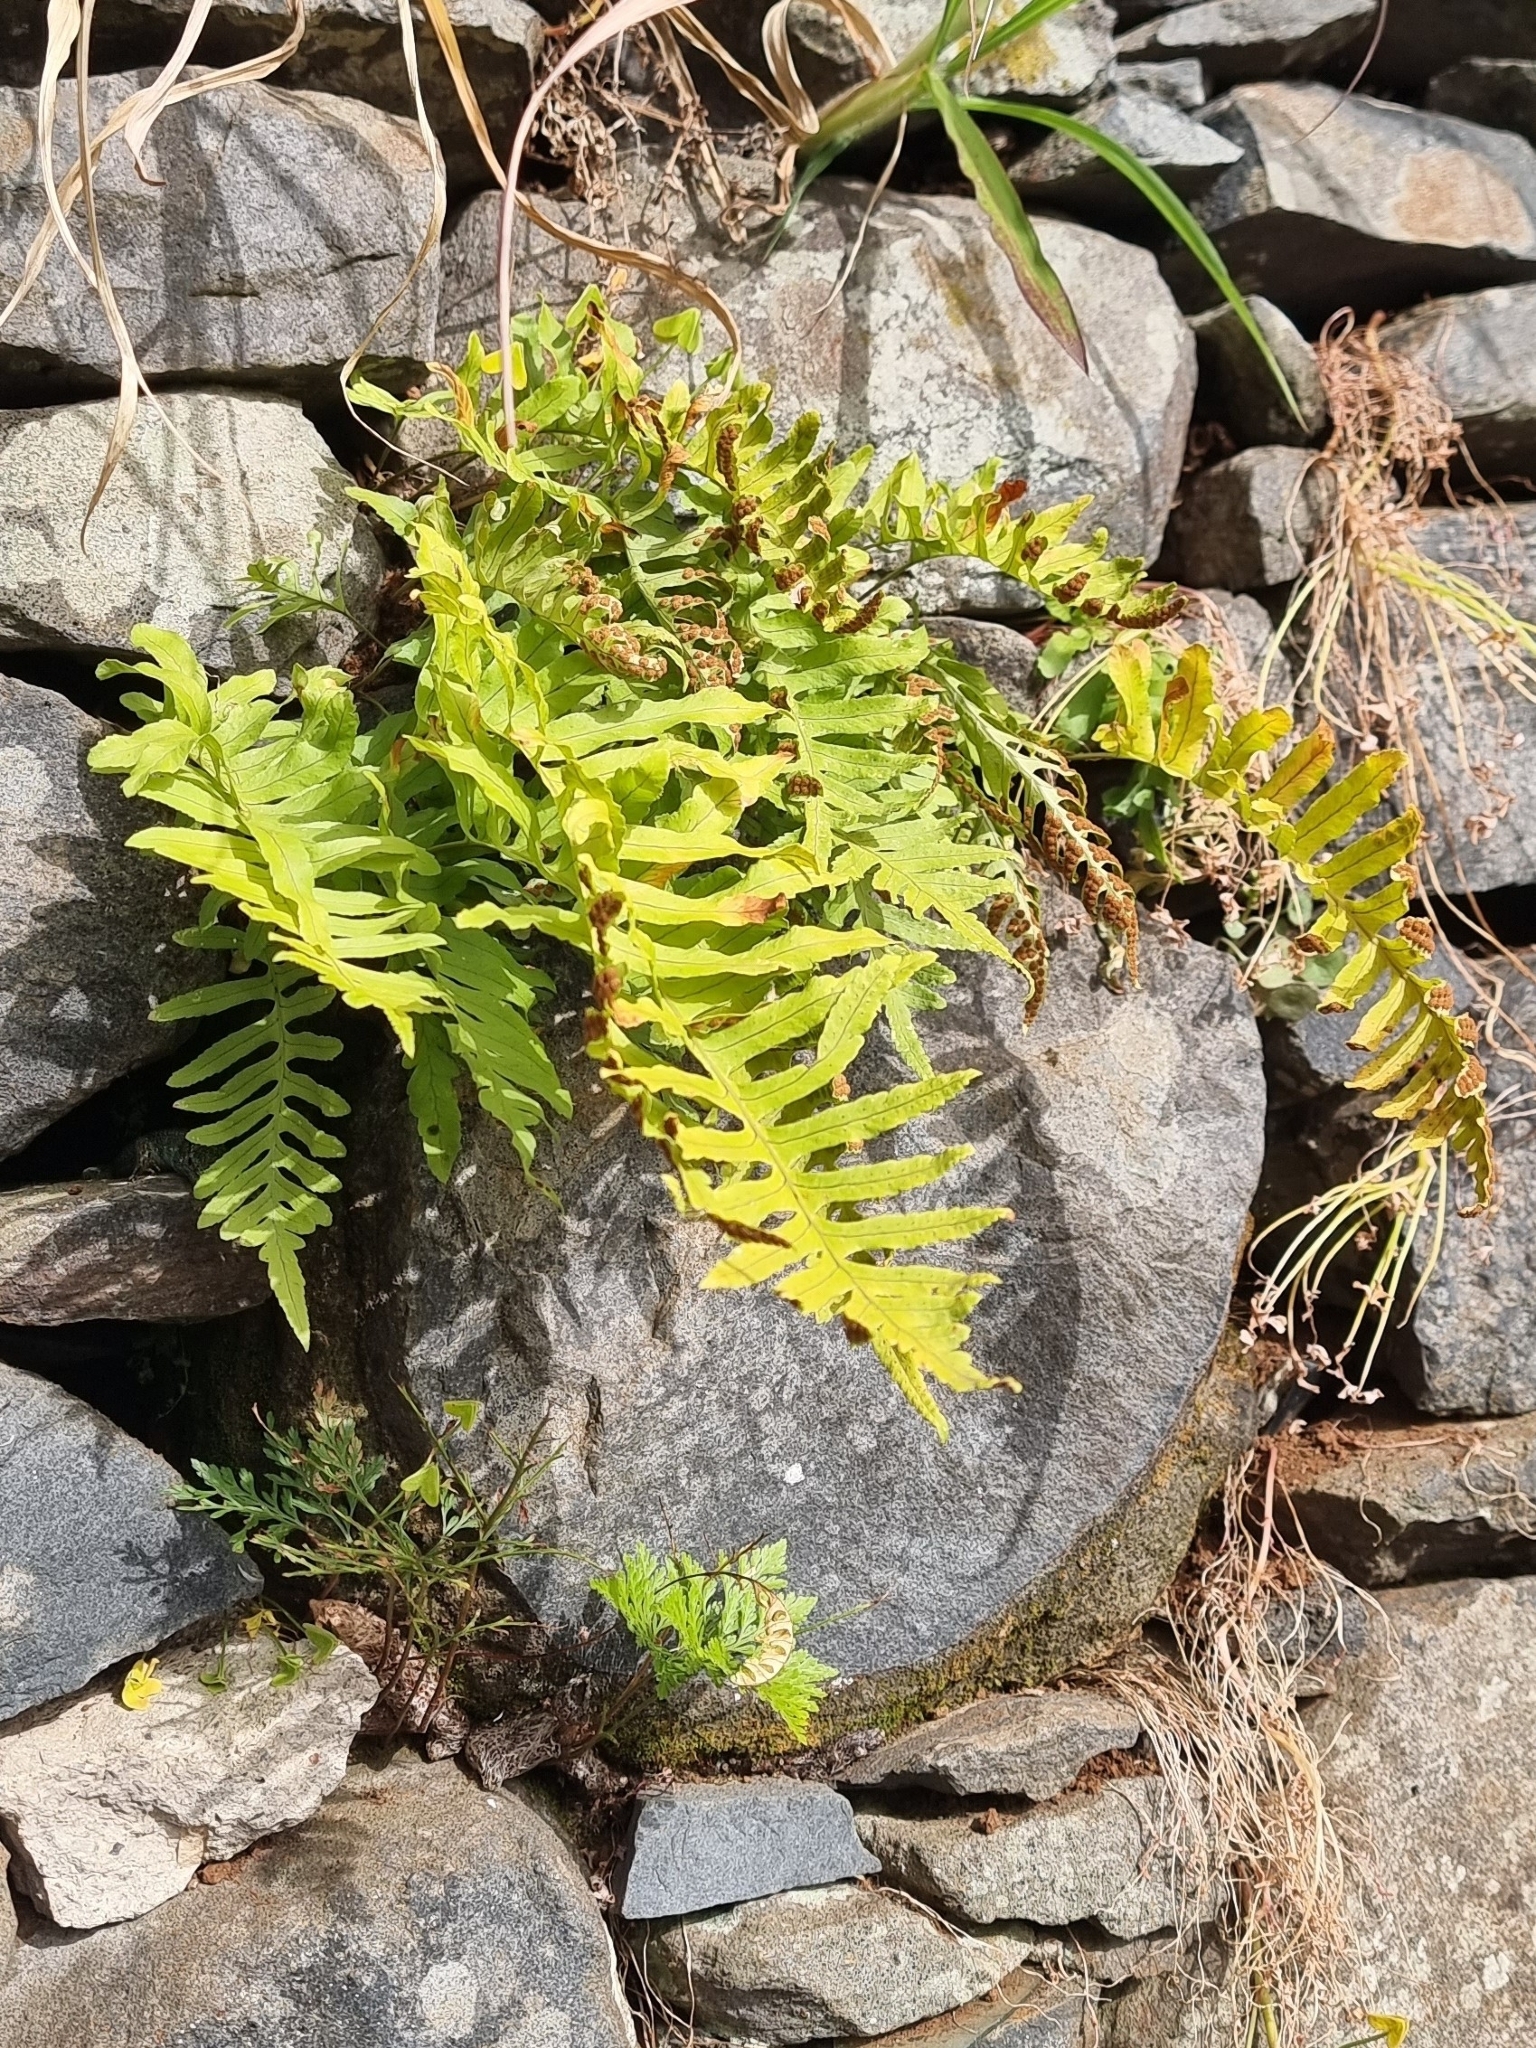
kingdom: Plantae
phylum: Tracheophyta
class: Polypodiopsida
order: Polypodiales
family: Polypodiaceae
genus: Polypodium
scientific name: Polypodium macaronesicum
